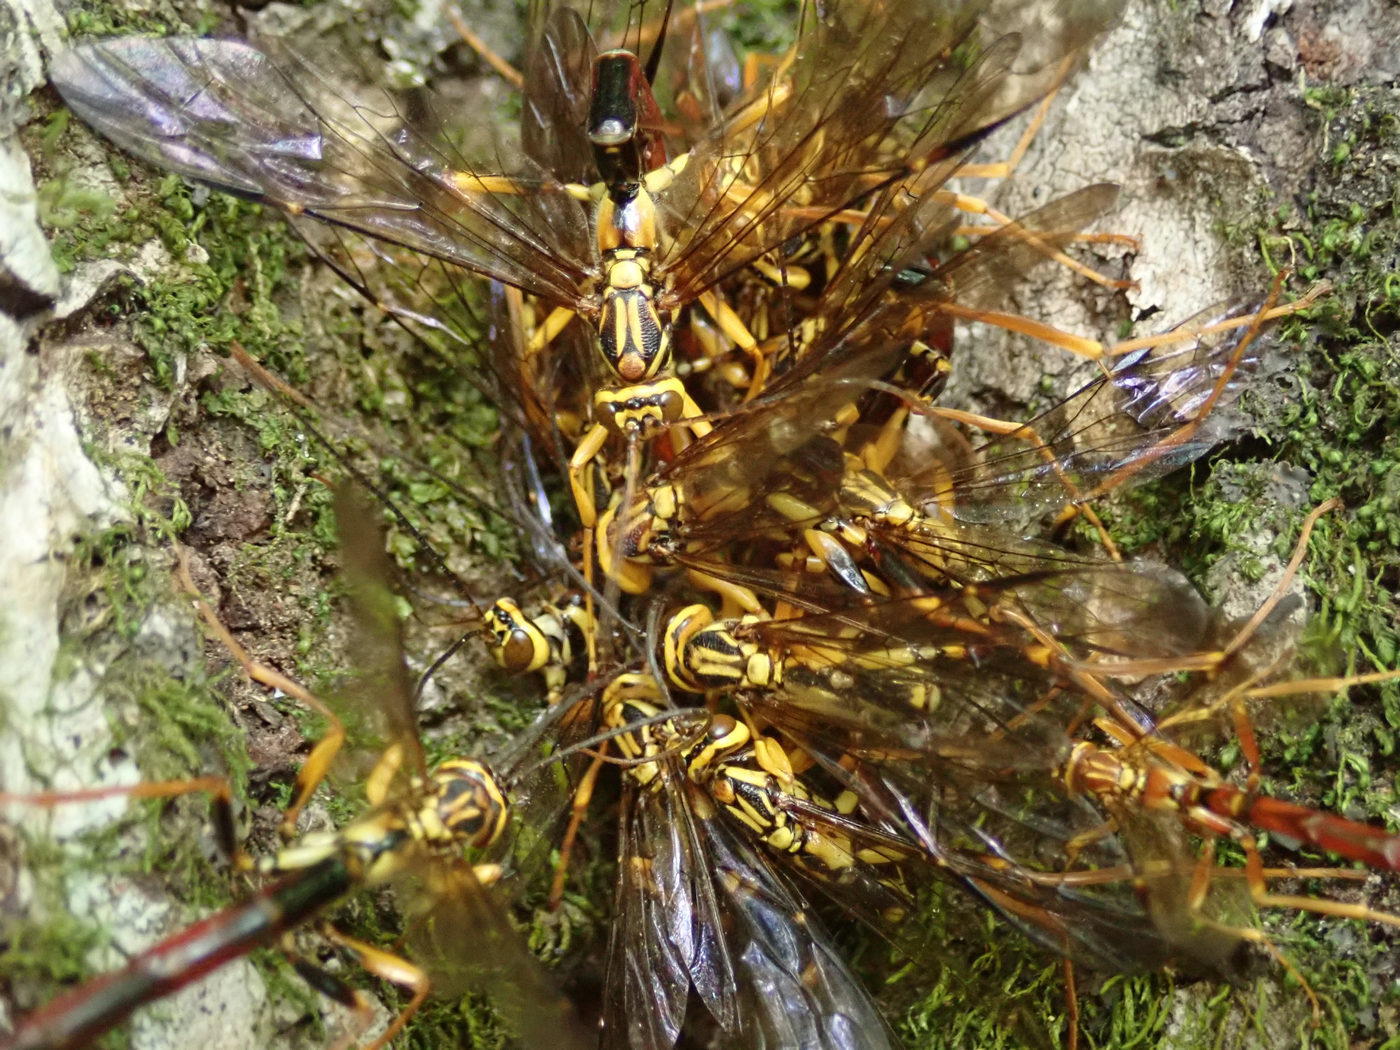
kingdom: Animalia
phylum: Arthropoda
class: Insecta
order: Hymenoptera
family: Ichneumonidae
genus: Megarhyssa
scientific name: Megarhyssa atrata
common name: Black giant ichneumonid wasp
